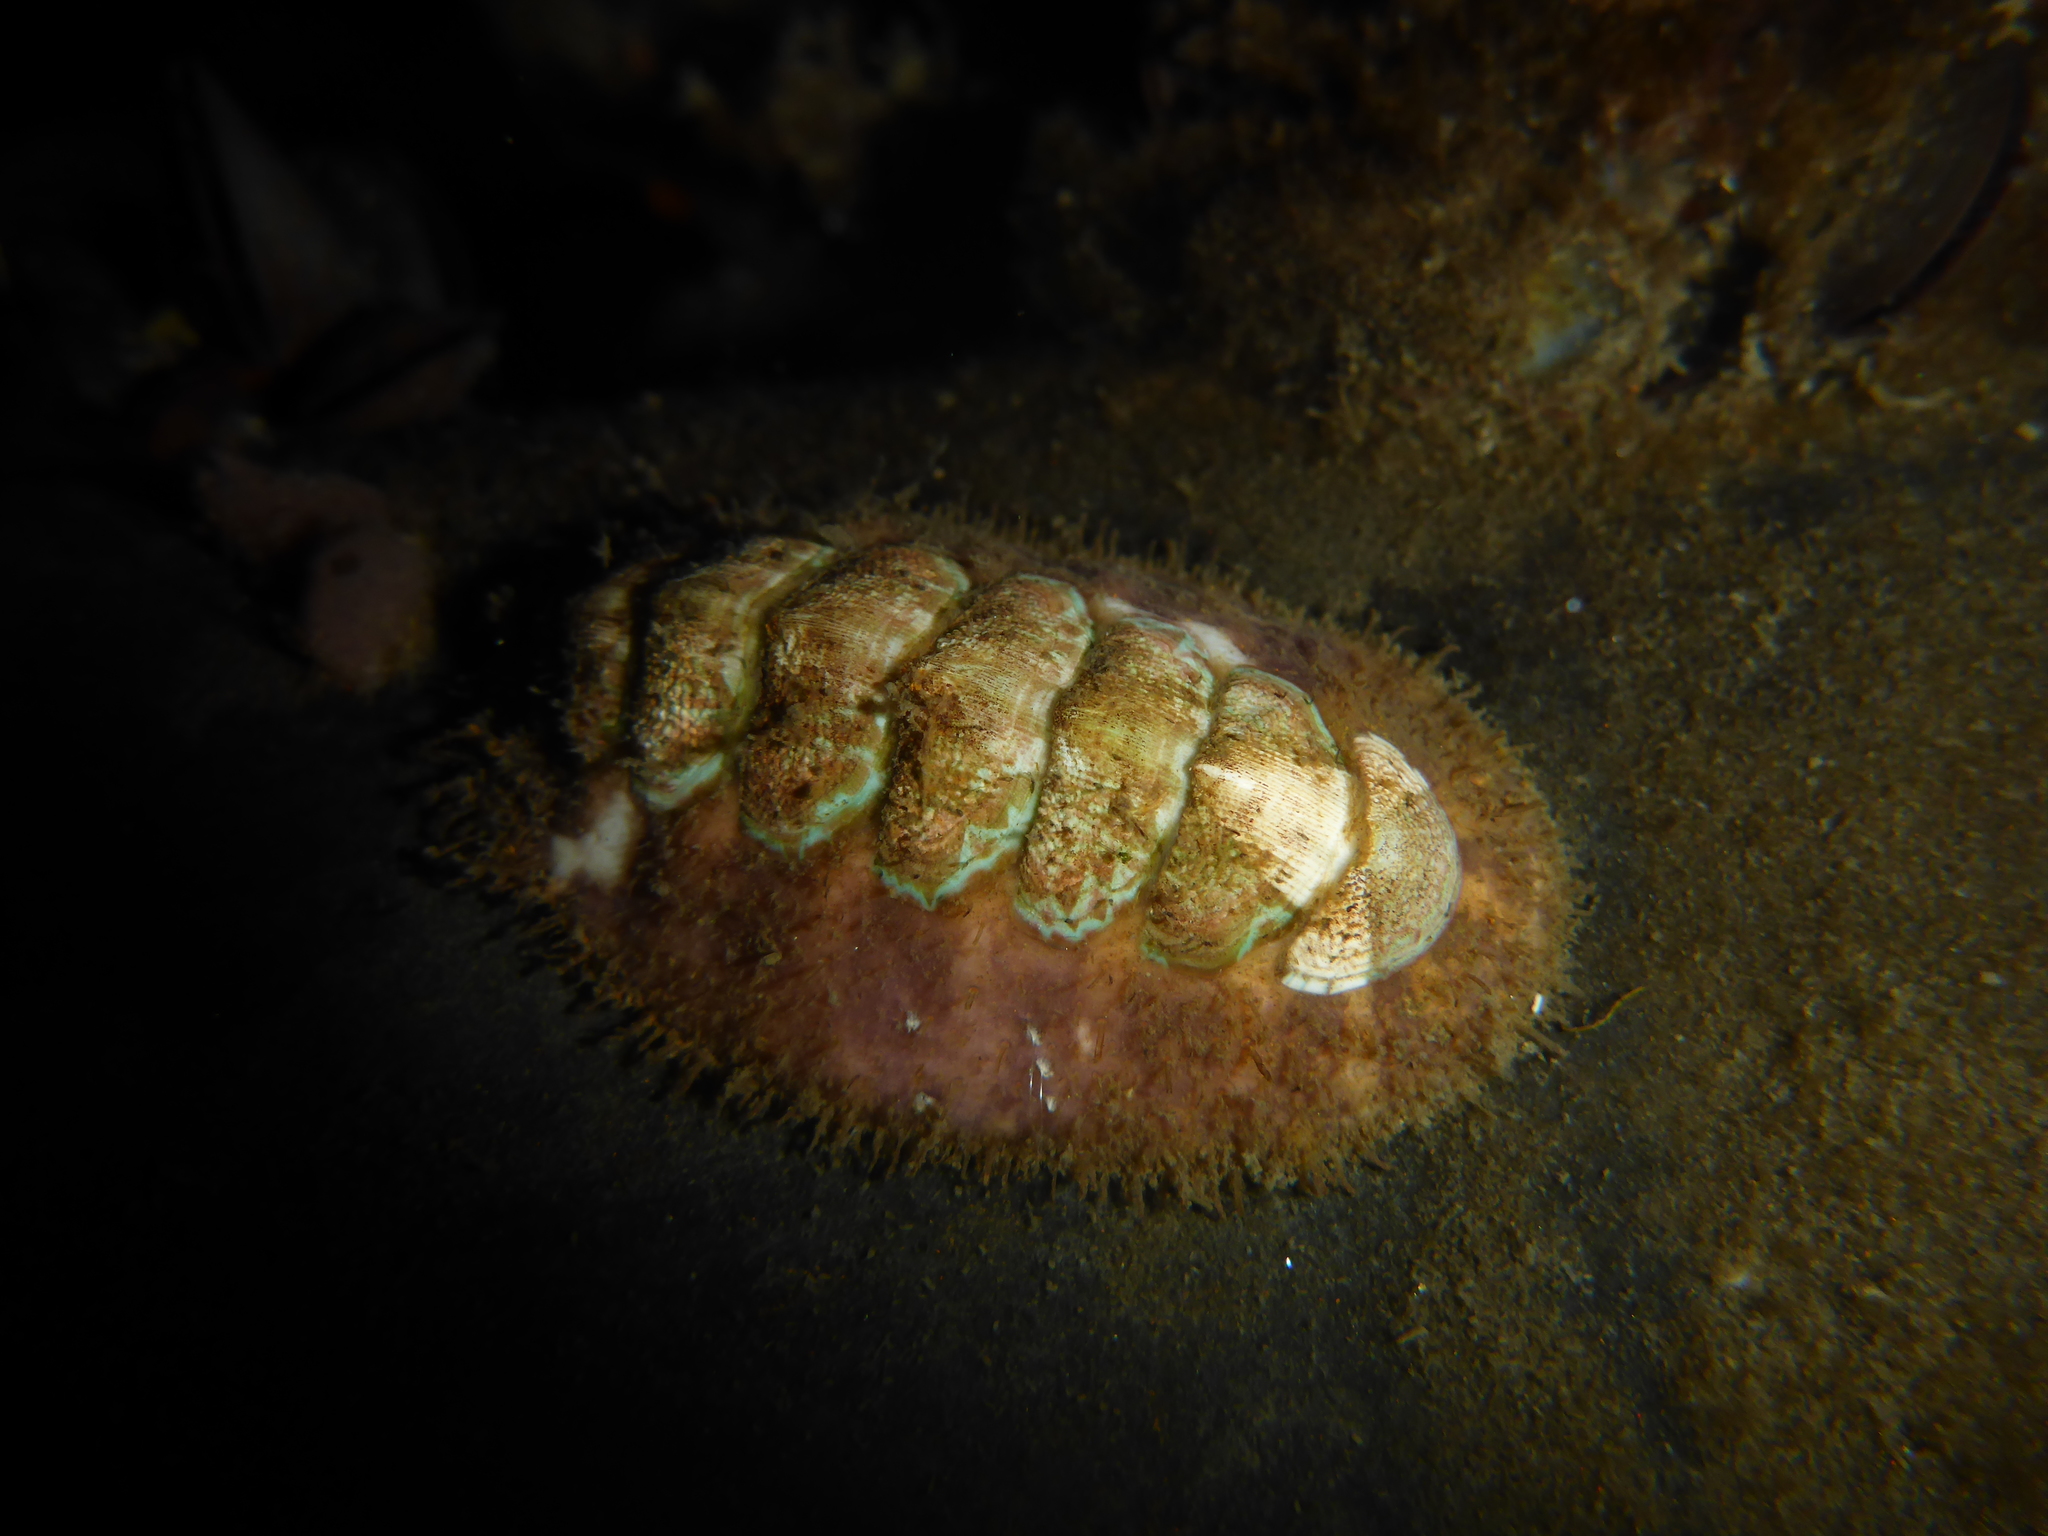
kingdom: Animalia
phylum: Mollusca
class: Polyplacophora
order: Chitonida
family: Mopaliidae
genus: Mopalia
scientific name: Mopalia ciliata
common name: Hairy chiton
